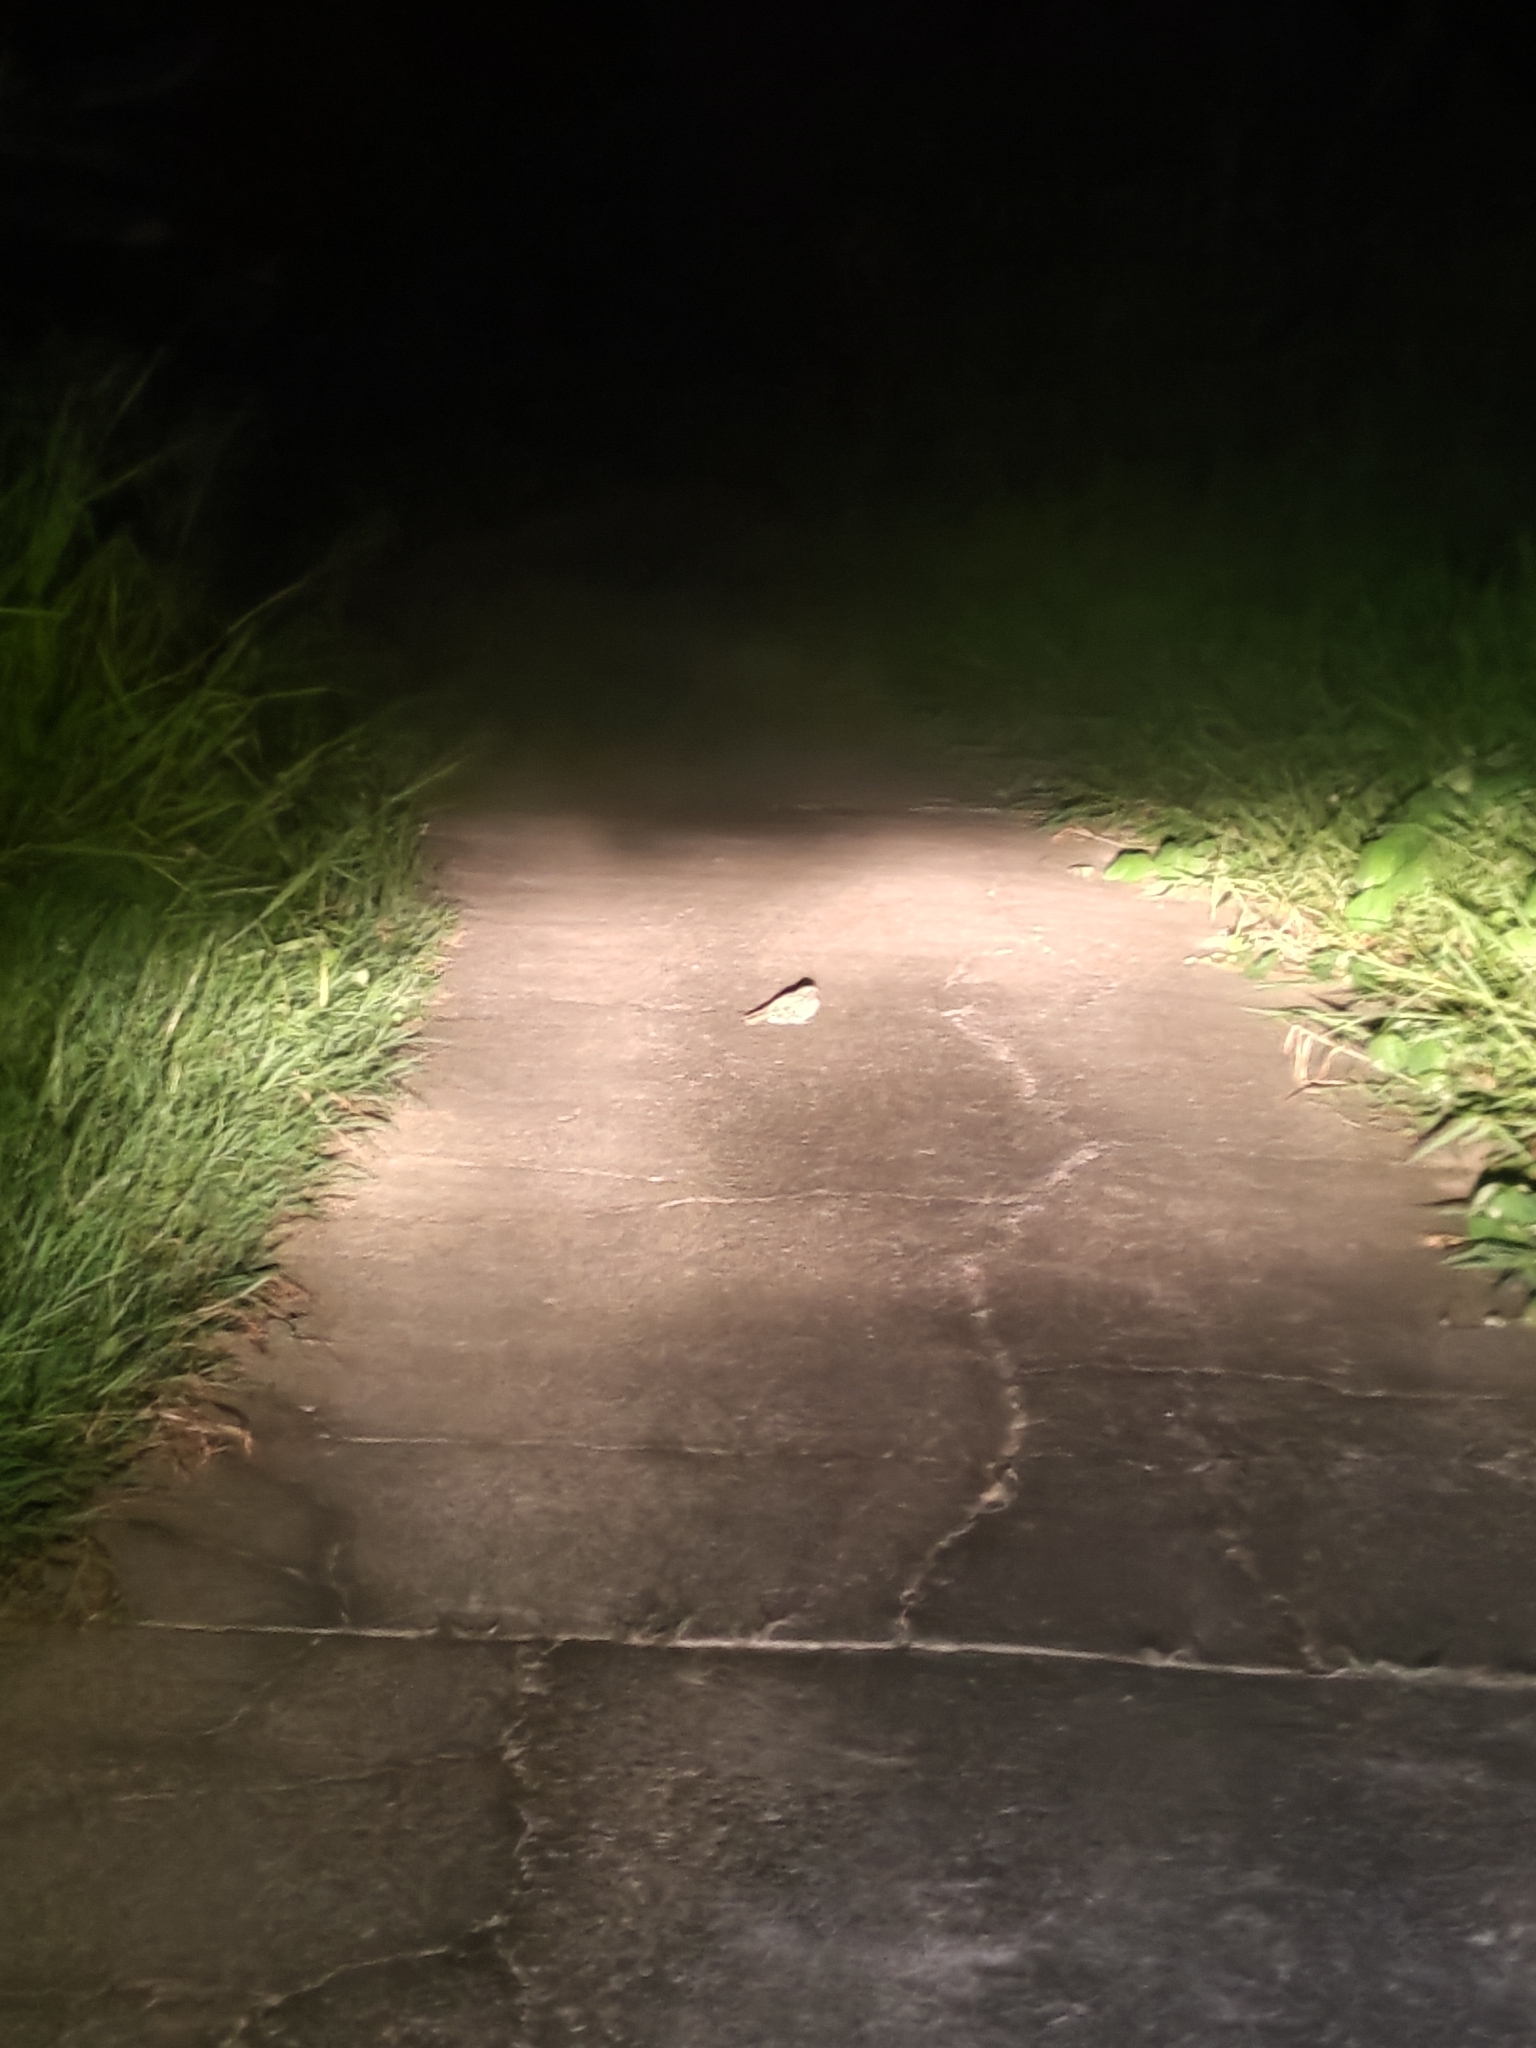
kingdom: Animalia
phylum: Chordata
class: Aves
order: Caprimulgiformes
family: Caprimulgidae
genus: Caprimulgus
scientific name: Caprimulgus affinis
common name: Savanna nightjar
